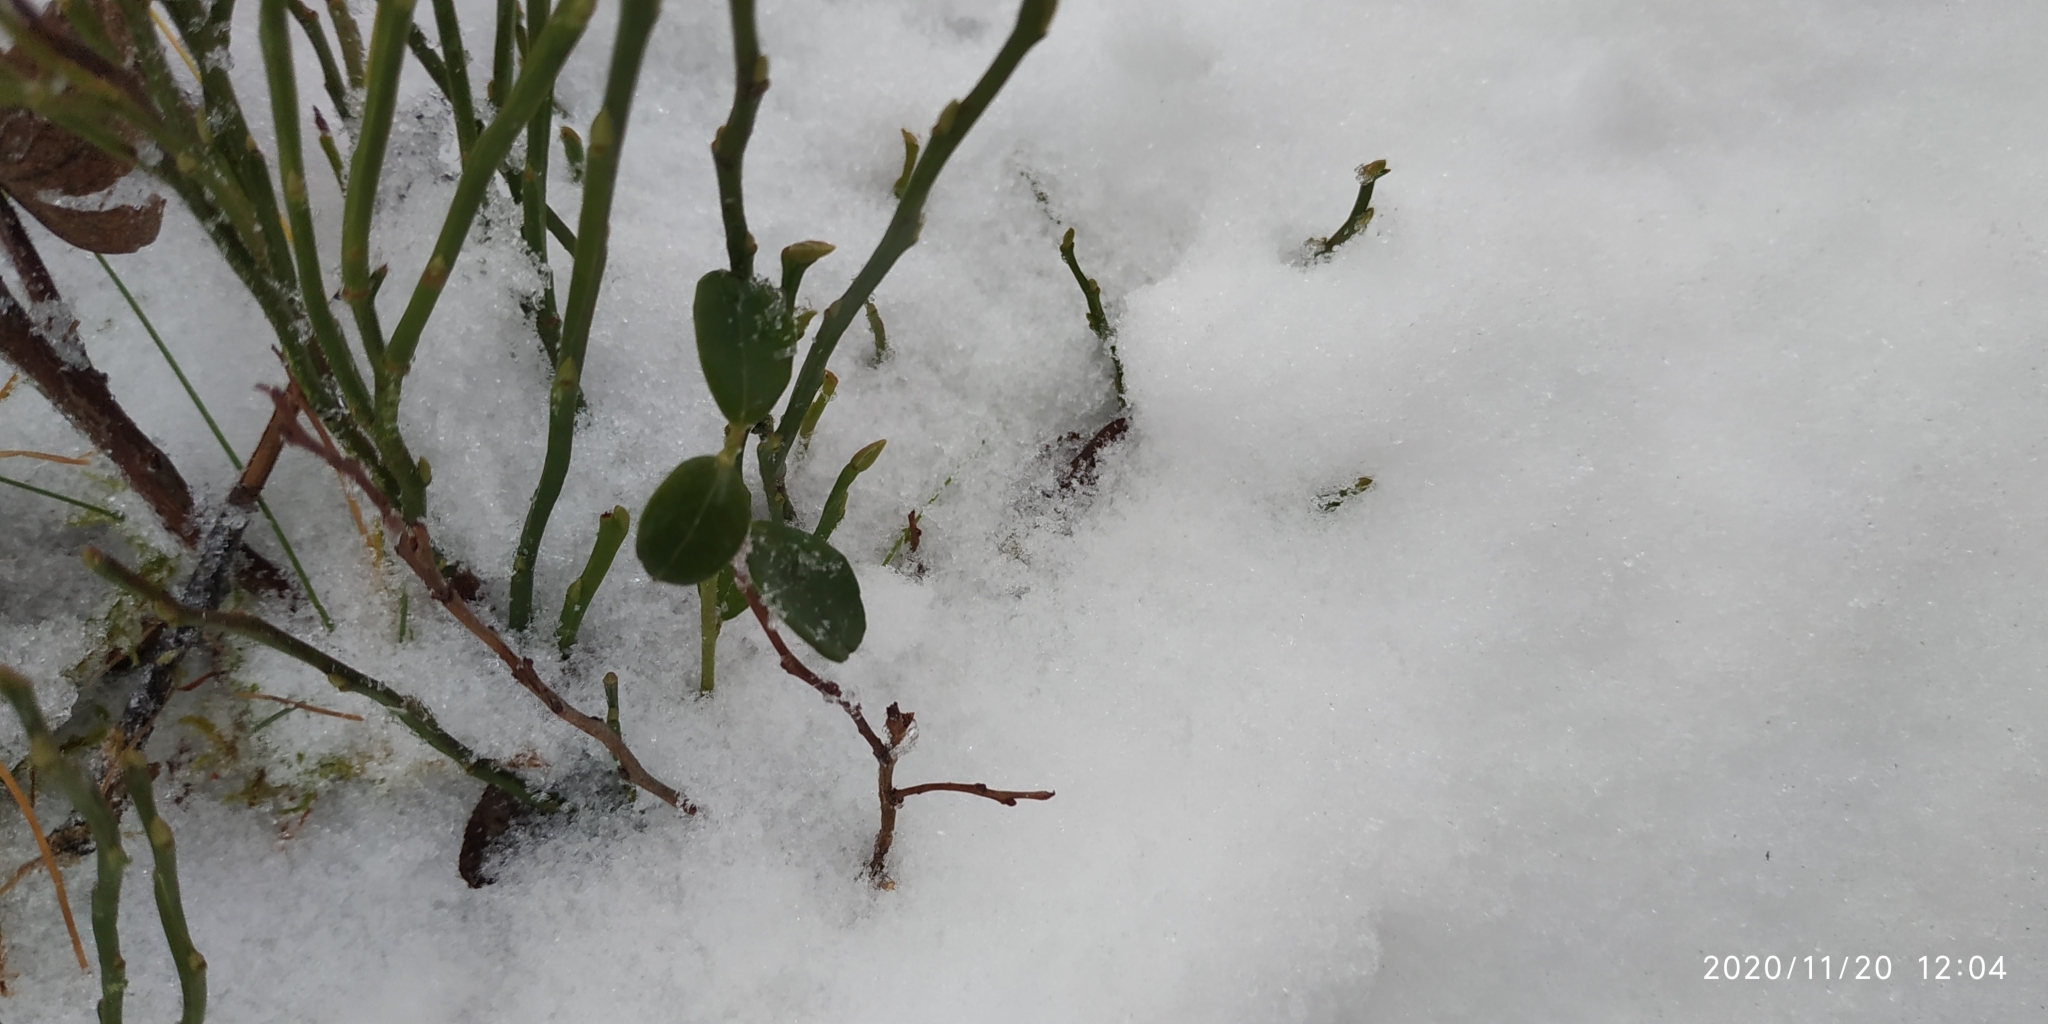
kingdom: Plantae
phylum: Tracheophyta
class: Magnoliopsida
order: Ericales
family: Ericaceae
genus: Vaccinium
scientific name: Vaccinium vitis-idaea
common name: Cowberry
